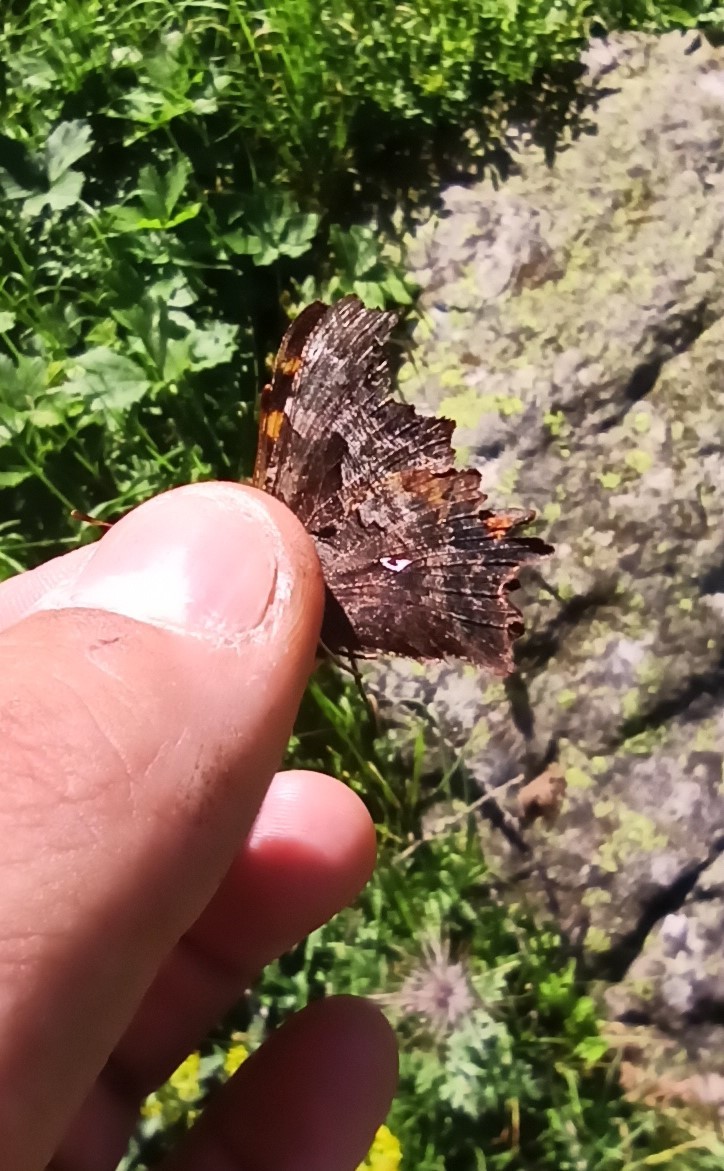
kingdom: Animalia
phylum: Arthropoda
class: Insecta
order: Lepidoptera
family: Nymphalidae
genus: Polygonia
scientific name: Polygonia c-album
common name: Comma
